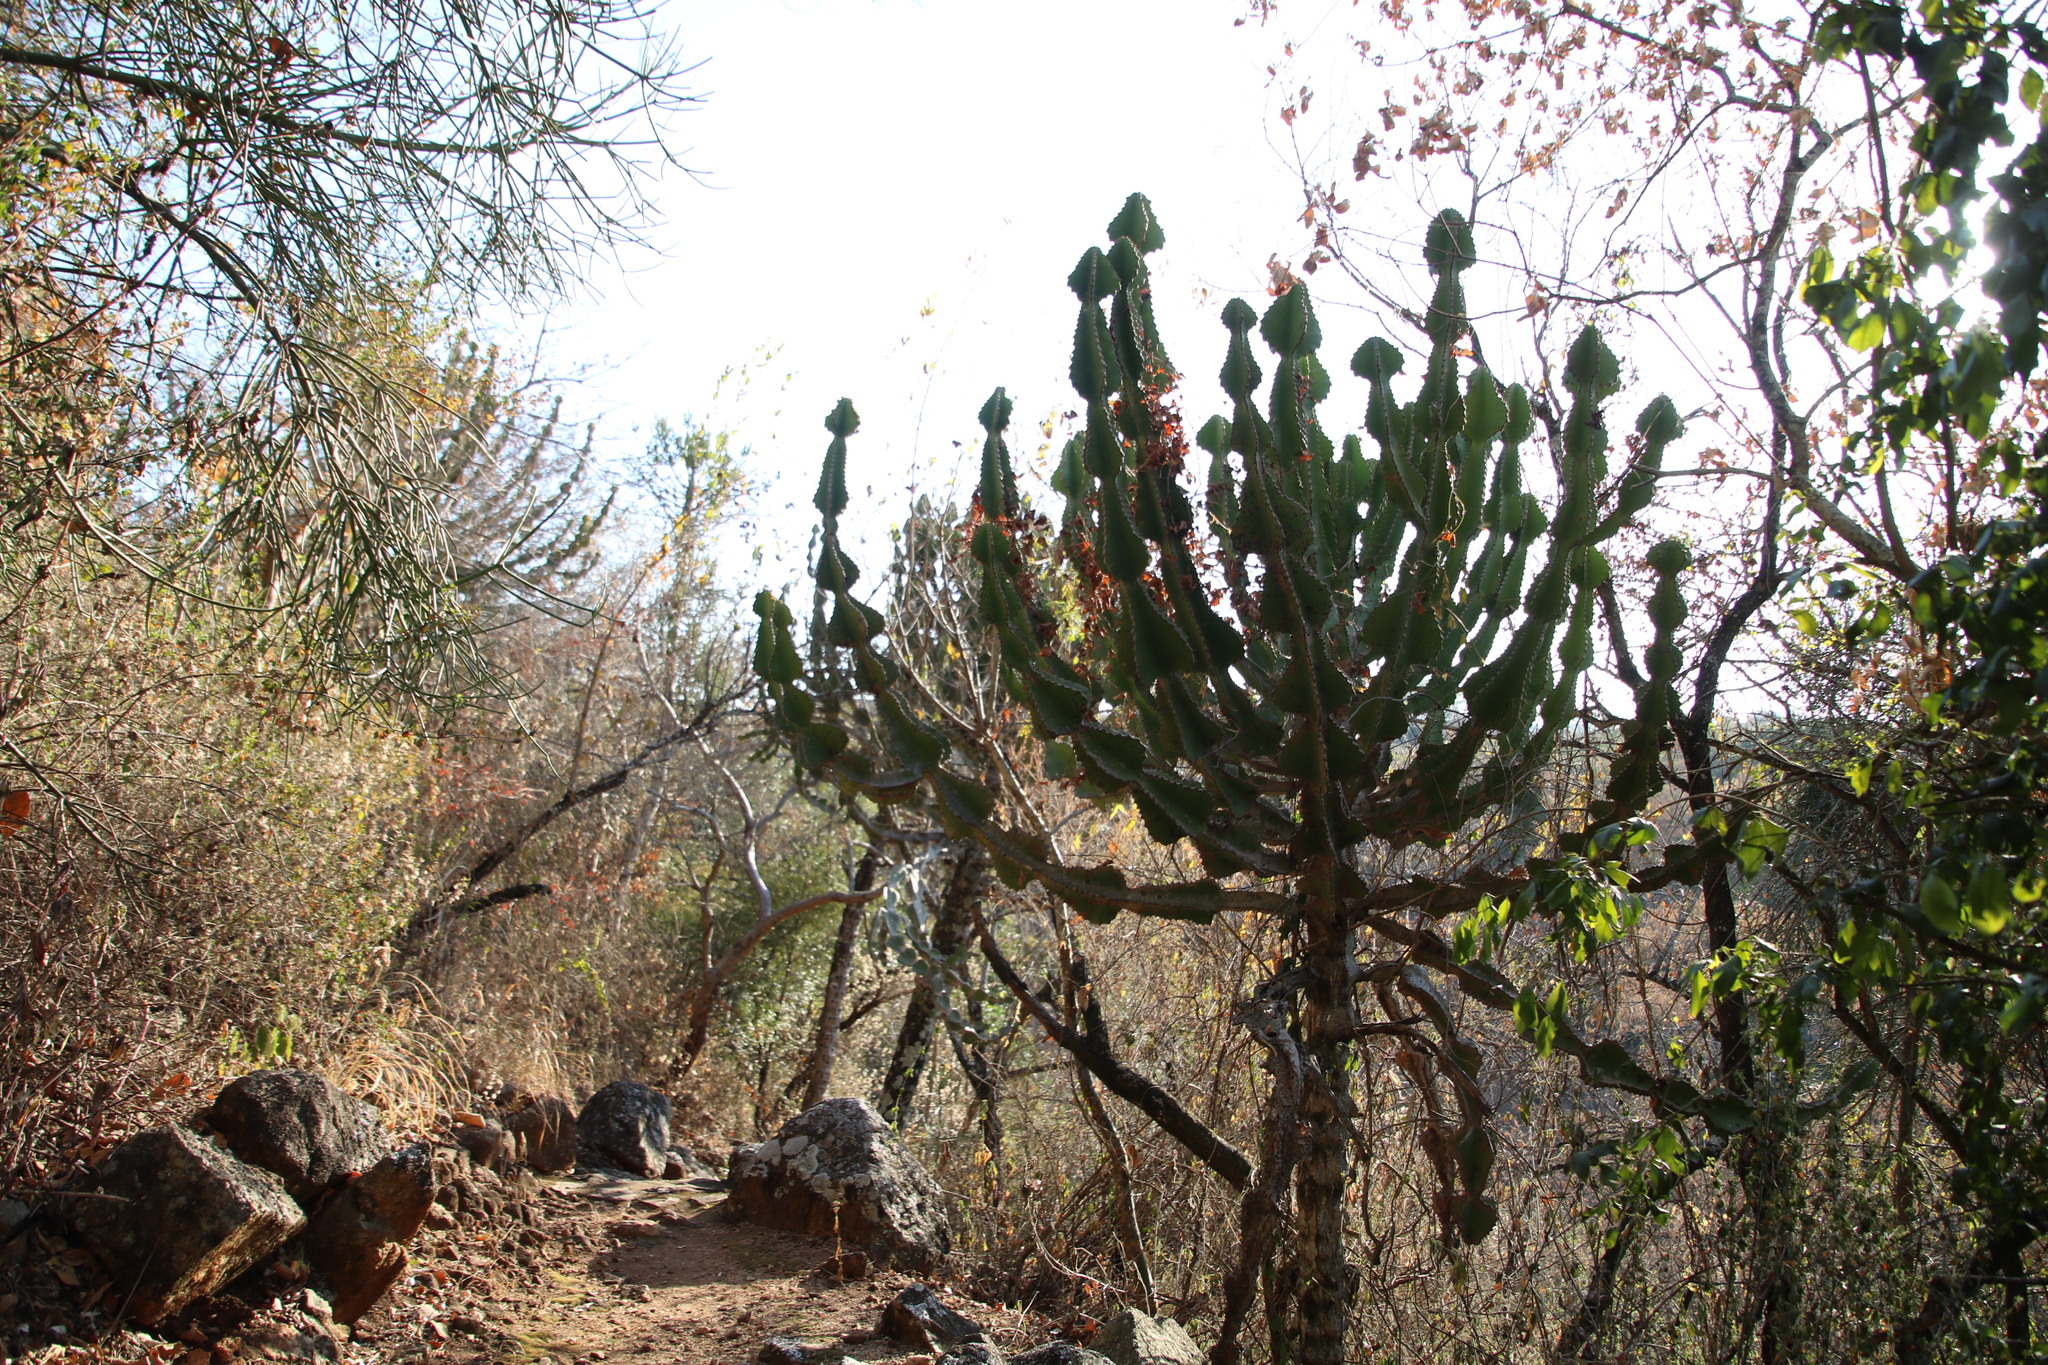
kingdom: Plantae
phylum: Tracheophyta
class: Magnoliopsida
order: Malpighiales
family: Euphorbiaceae
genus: Euphorbia
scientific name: Euphorbia cooperi
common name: Candelabra tree
